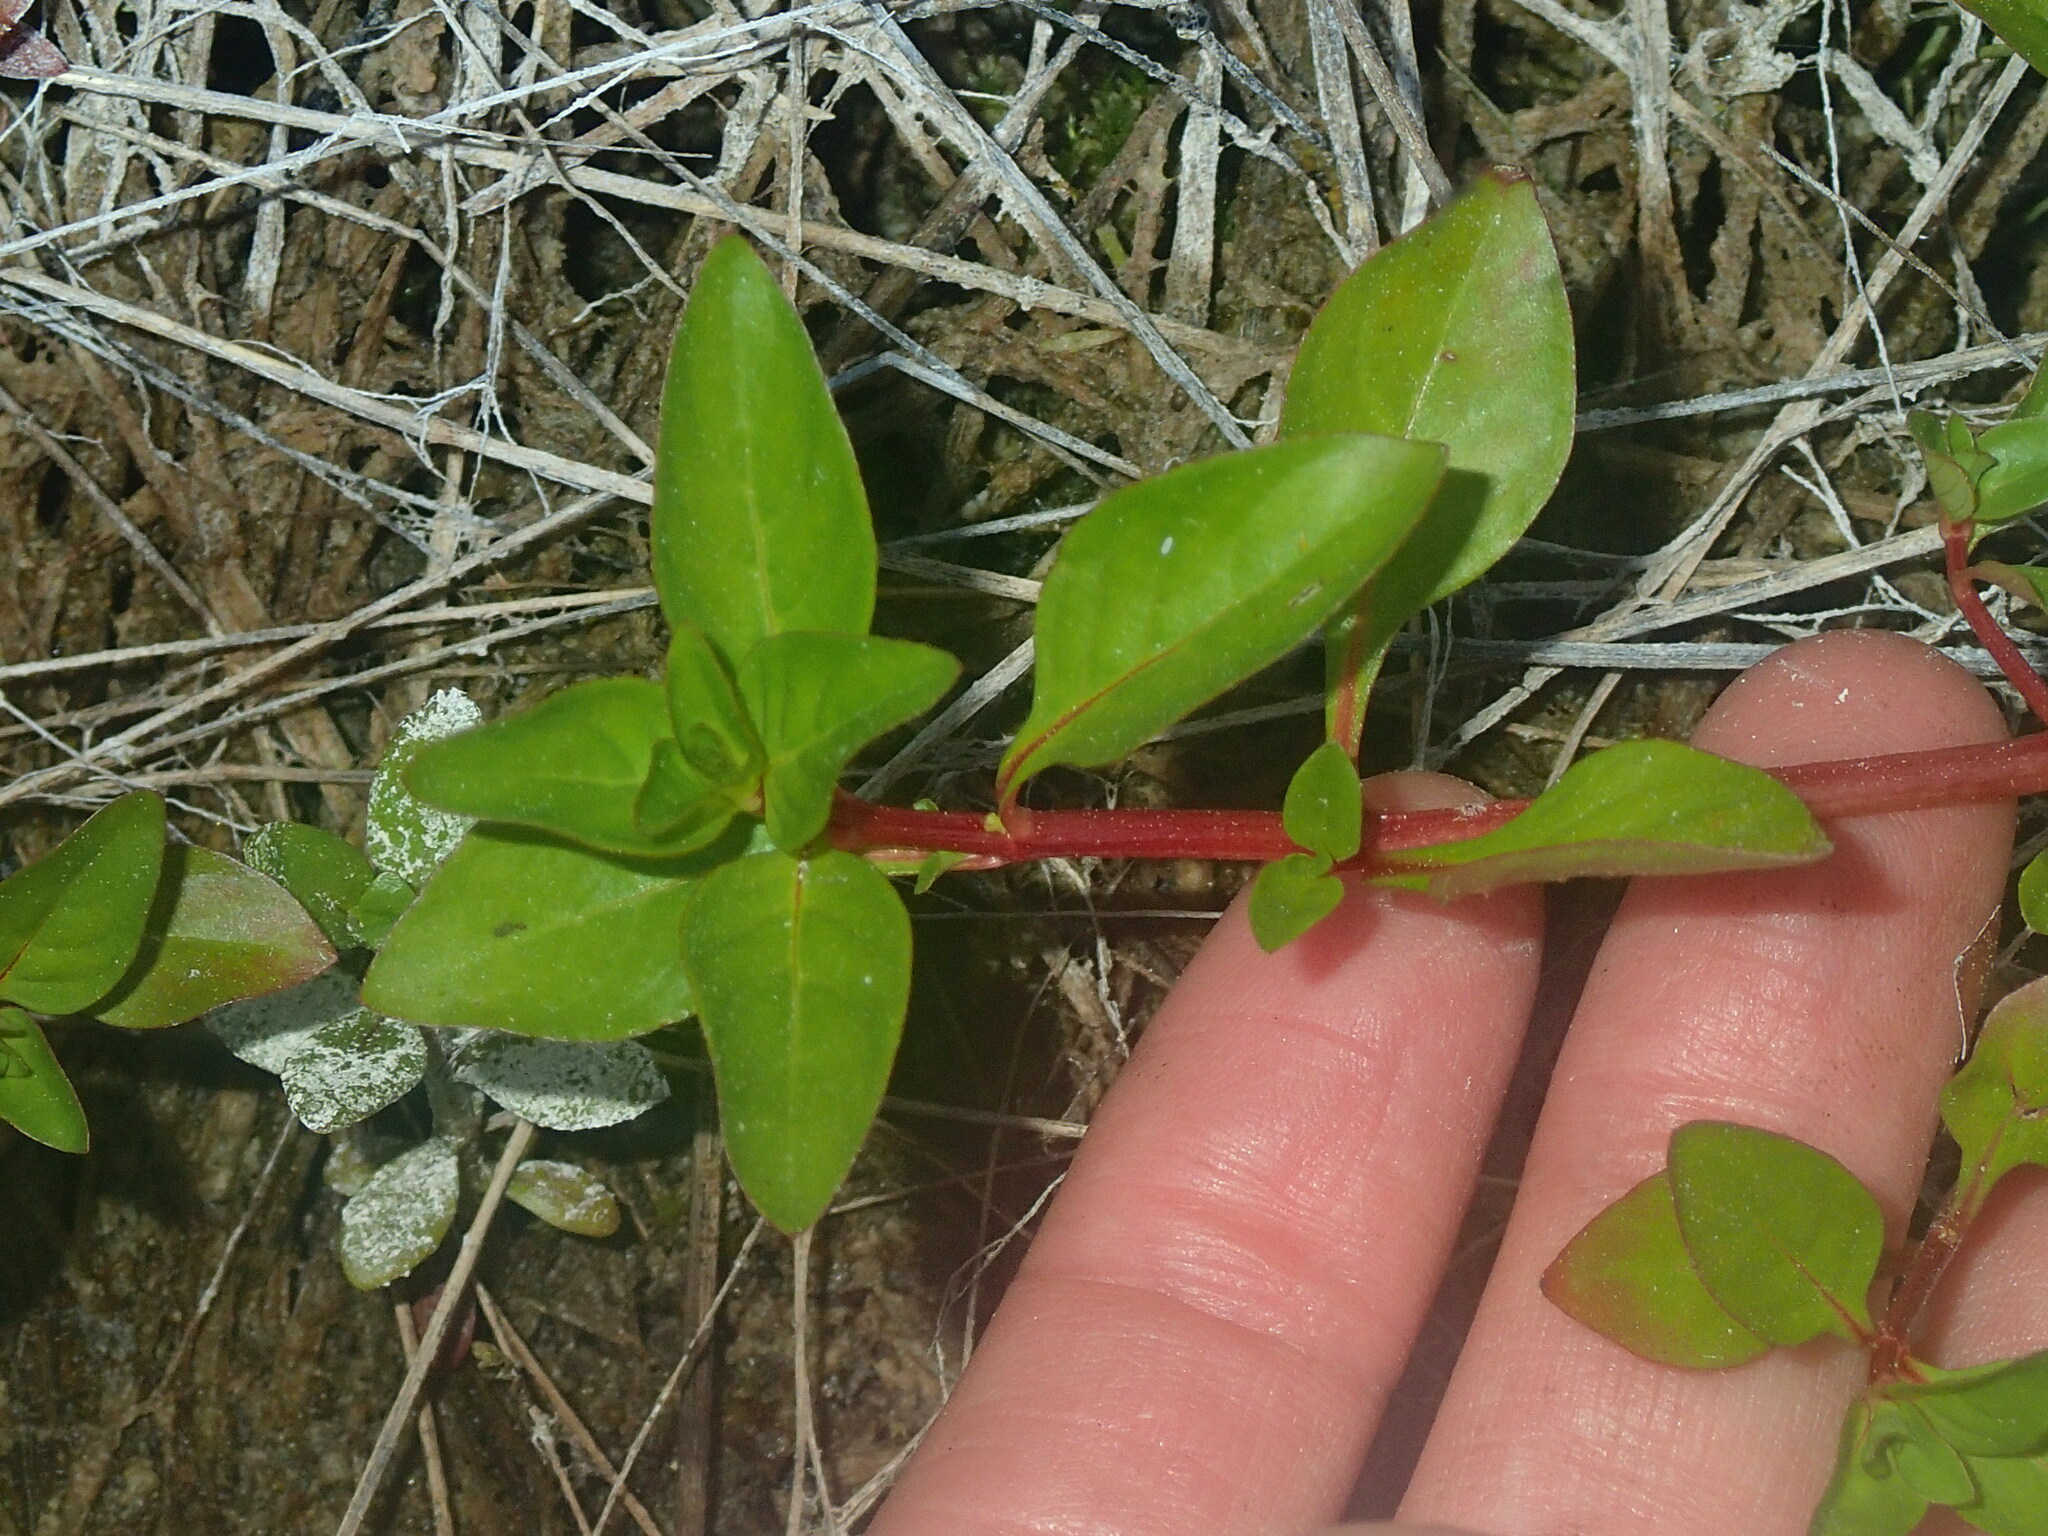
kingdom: Plantae
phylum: Tracheophyta
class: Magnoliopsida
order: Myrtales
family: Onagraceae
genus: Ludwigia
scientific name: Ludwigia palustris
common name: Hampshire-purslane
